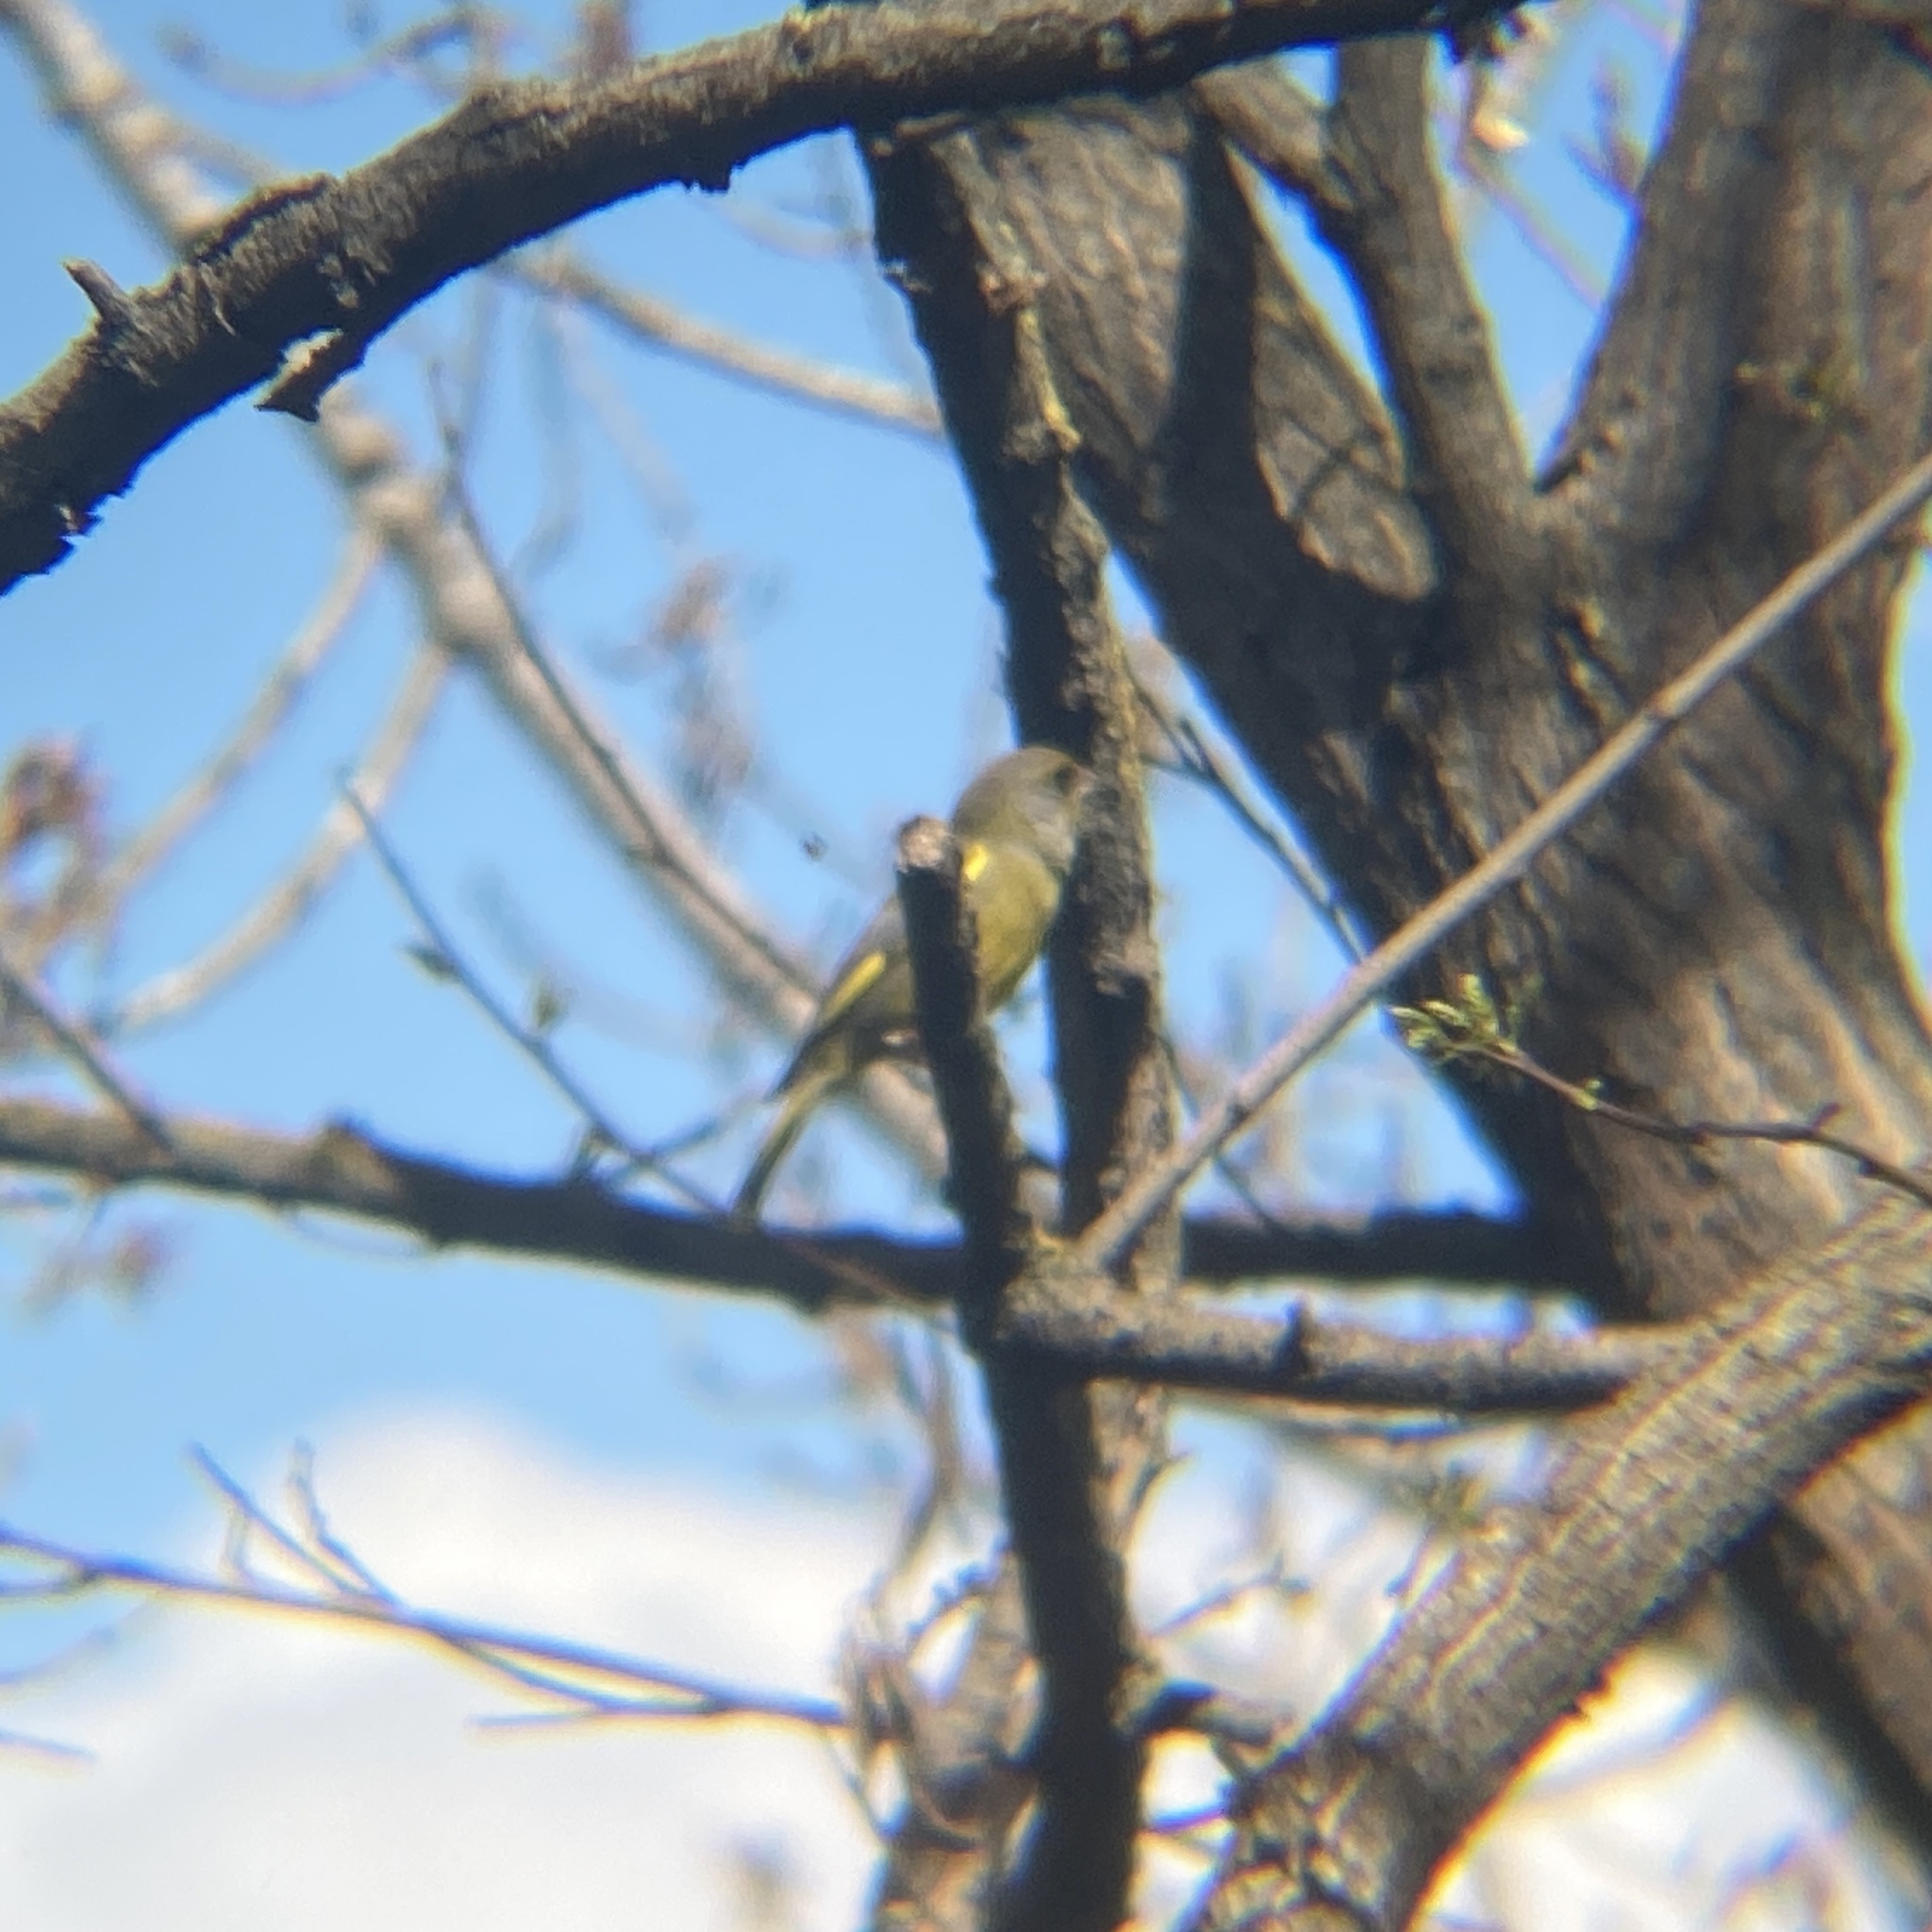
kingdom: Plantae
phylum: Tracheophyta
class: Liliopsida
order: Poales
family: Poaceae
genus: Chloris
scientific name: Chloris chloris
